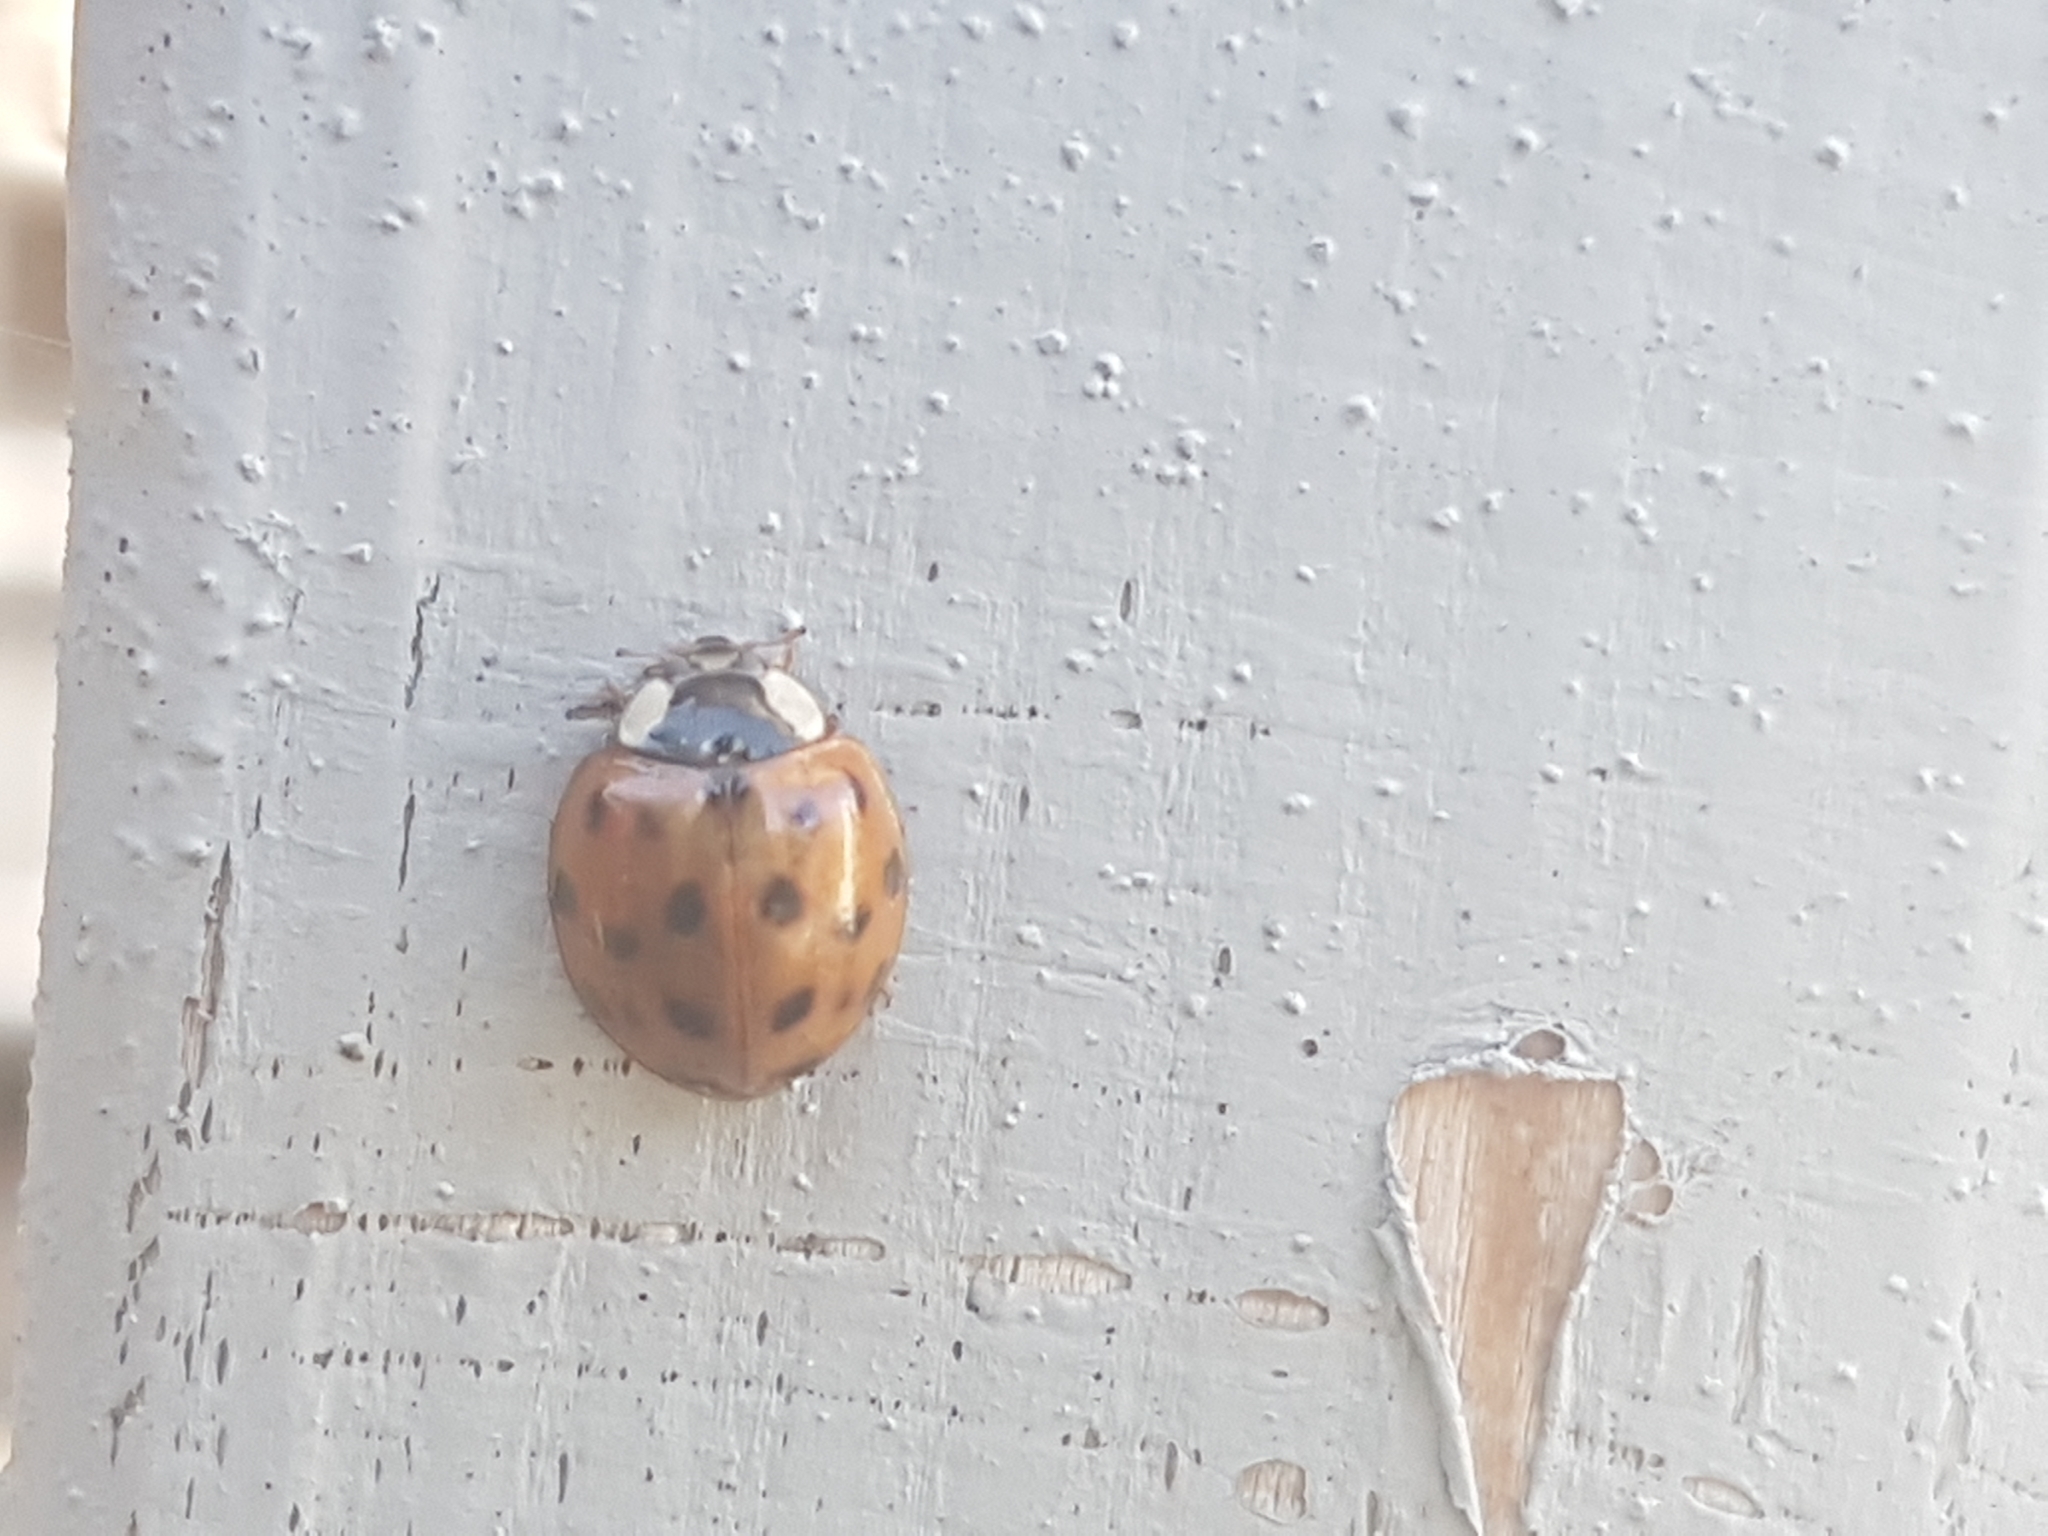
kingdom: Animalia
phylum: Arthropoda
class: Insecta
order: Coleoptera
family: Coccinellidae
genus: Harmonia
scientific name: Harmonia axyridis
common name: Harlequin ladybird
